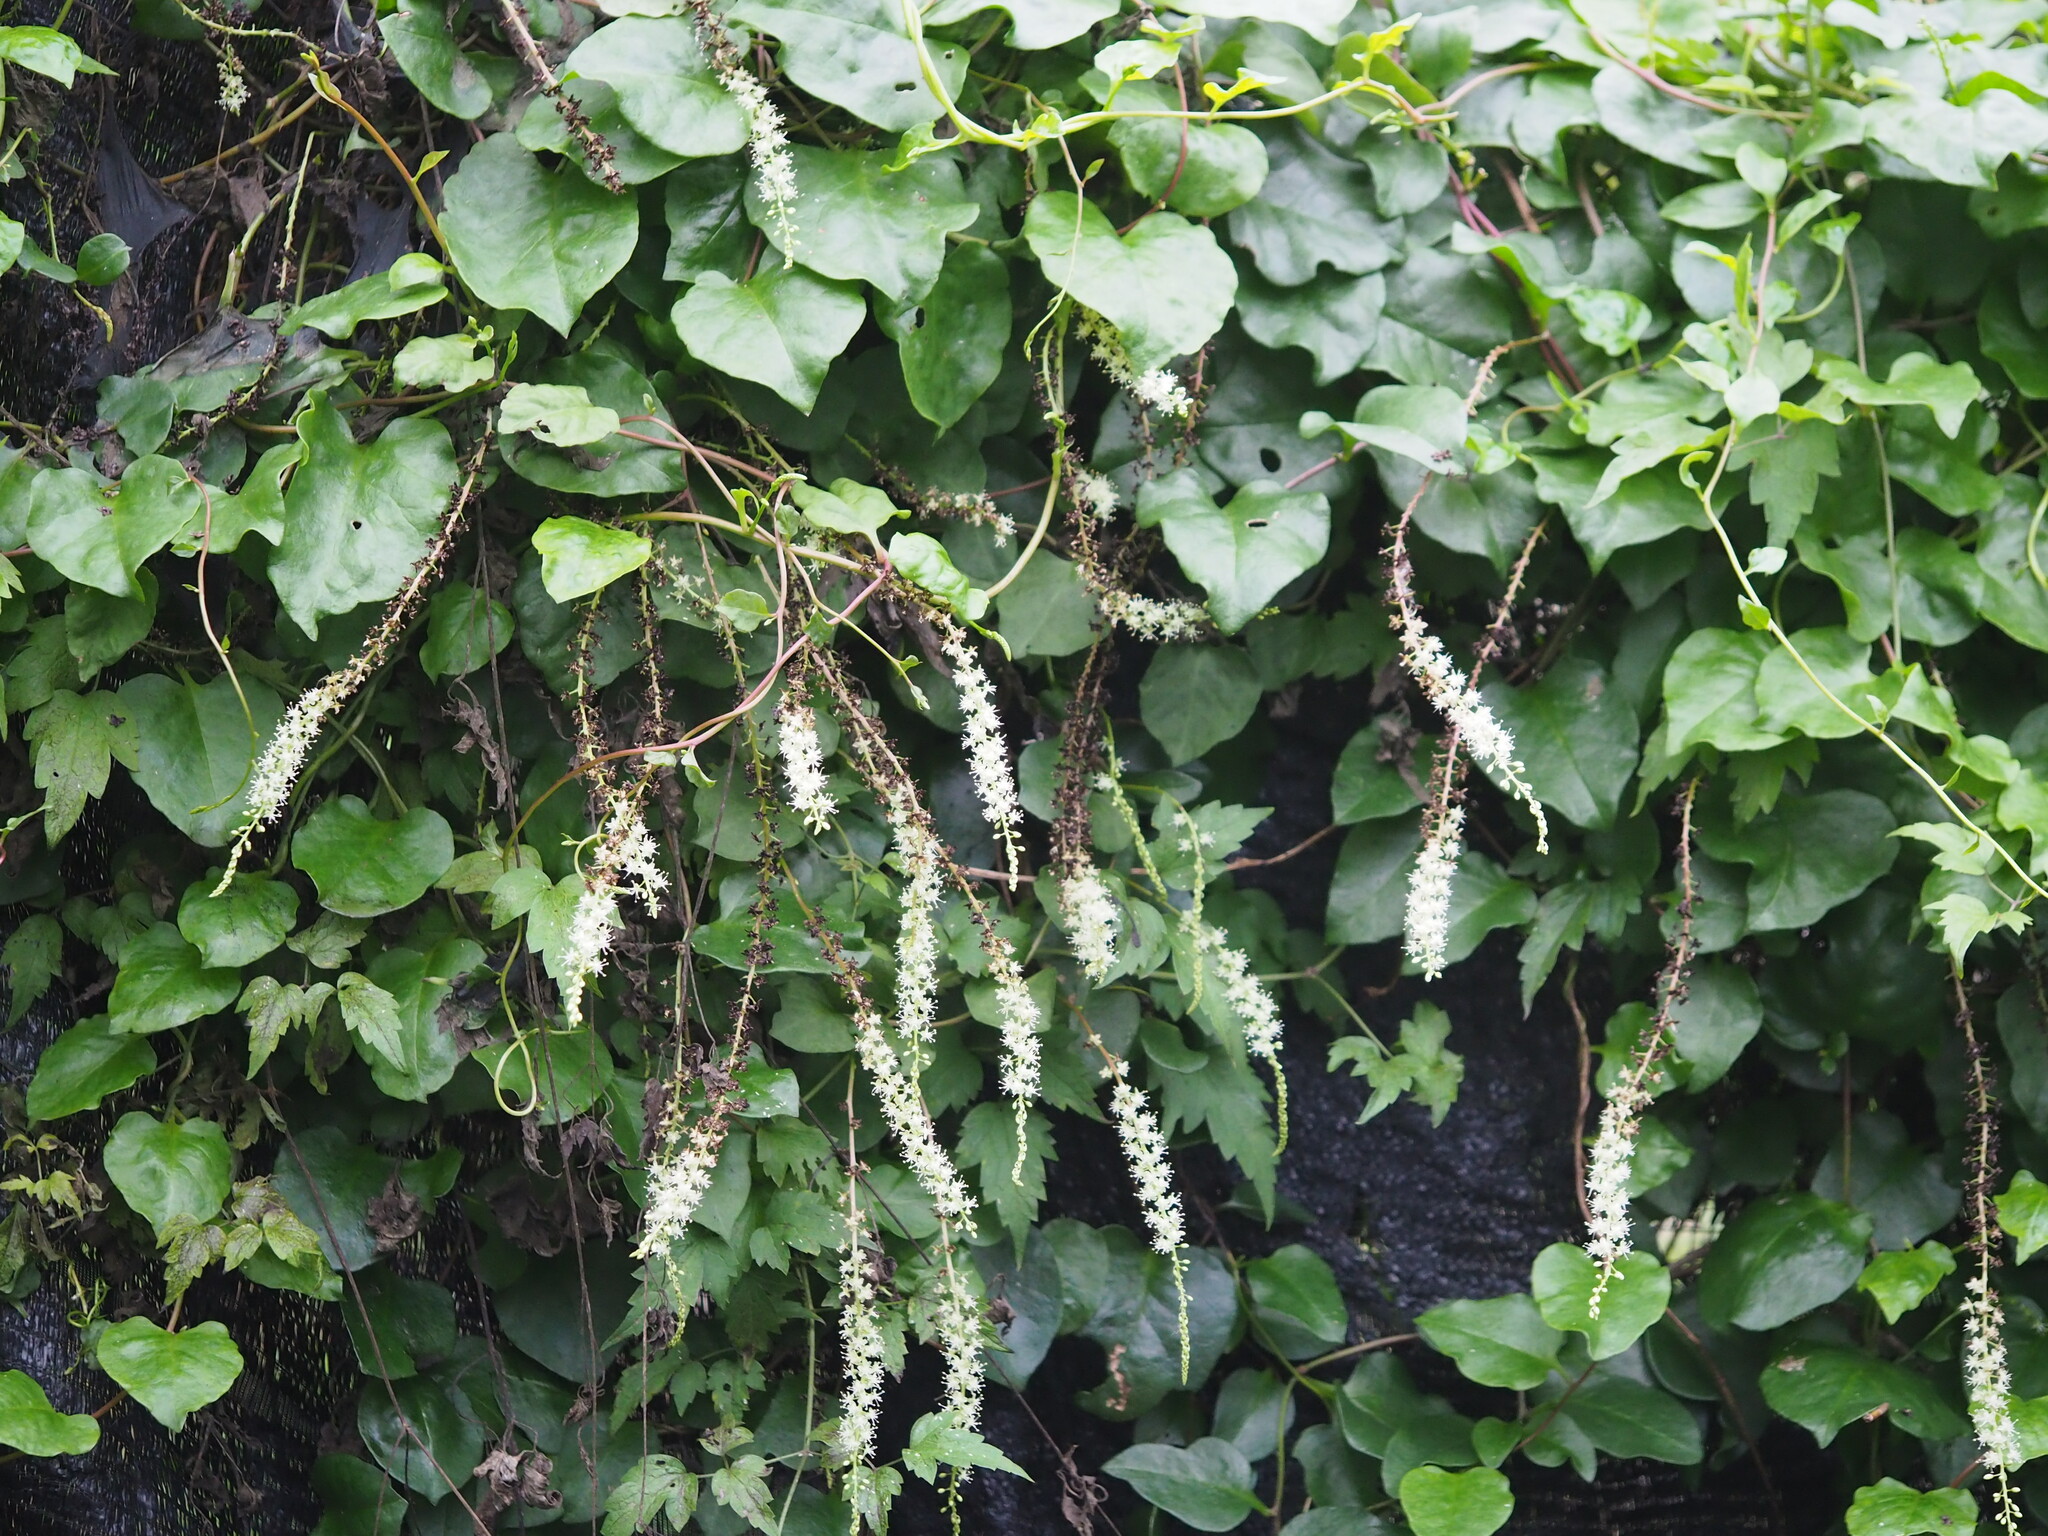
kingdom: Plantae
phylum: Tracheophyta
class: Magnoliopsida
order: Caryophyllales
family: Basellaceae
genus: Anredera
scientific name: Anredera cordifolia
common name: Heartleaf madeiravine
